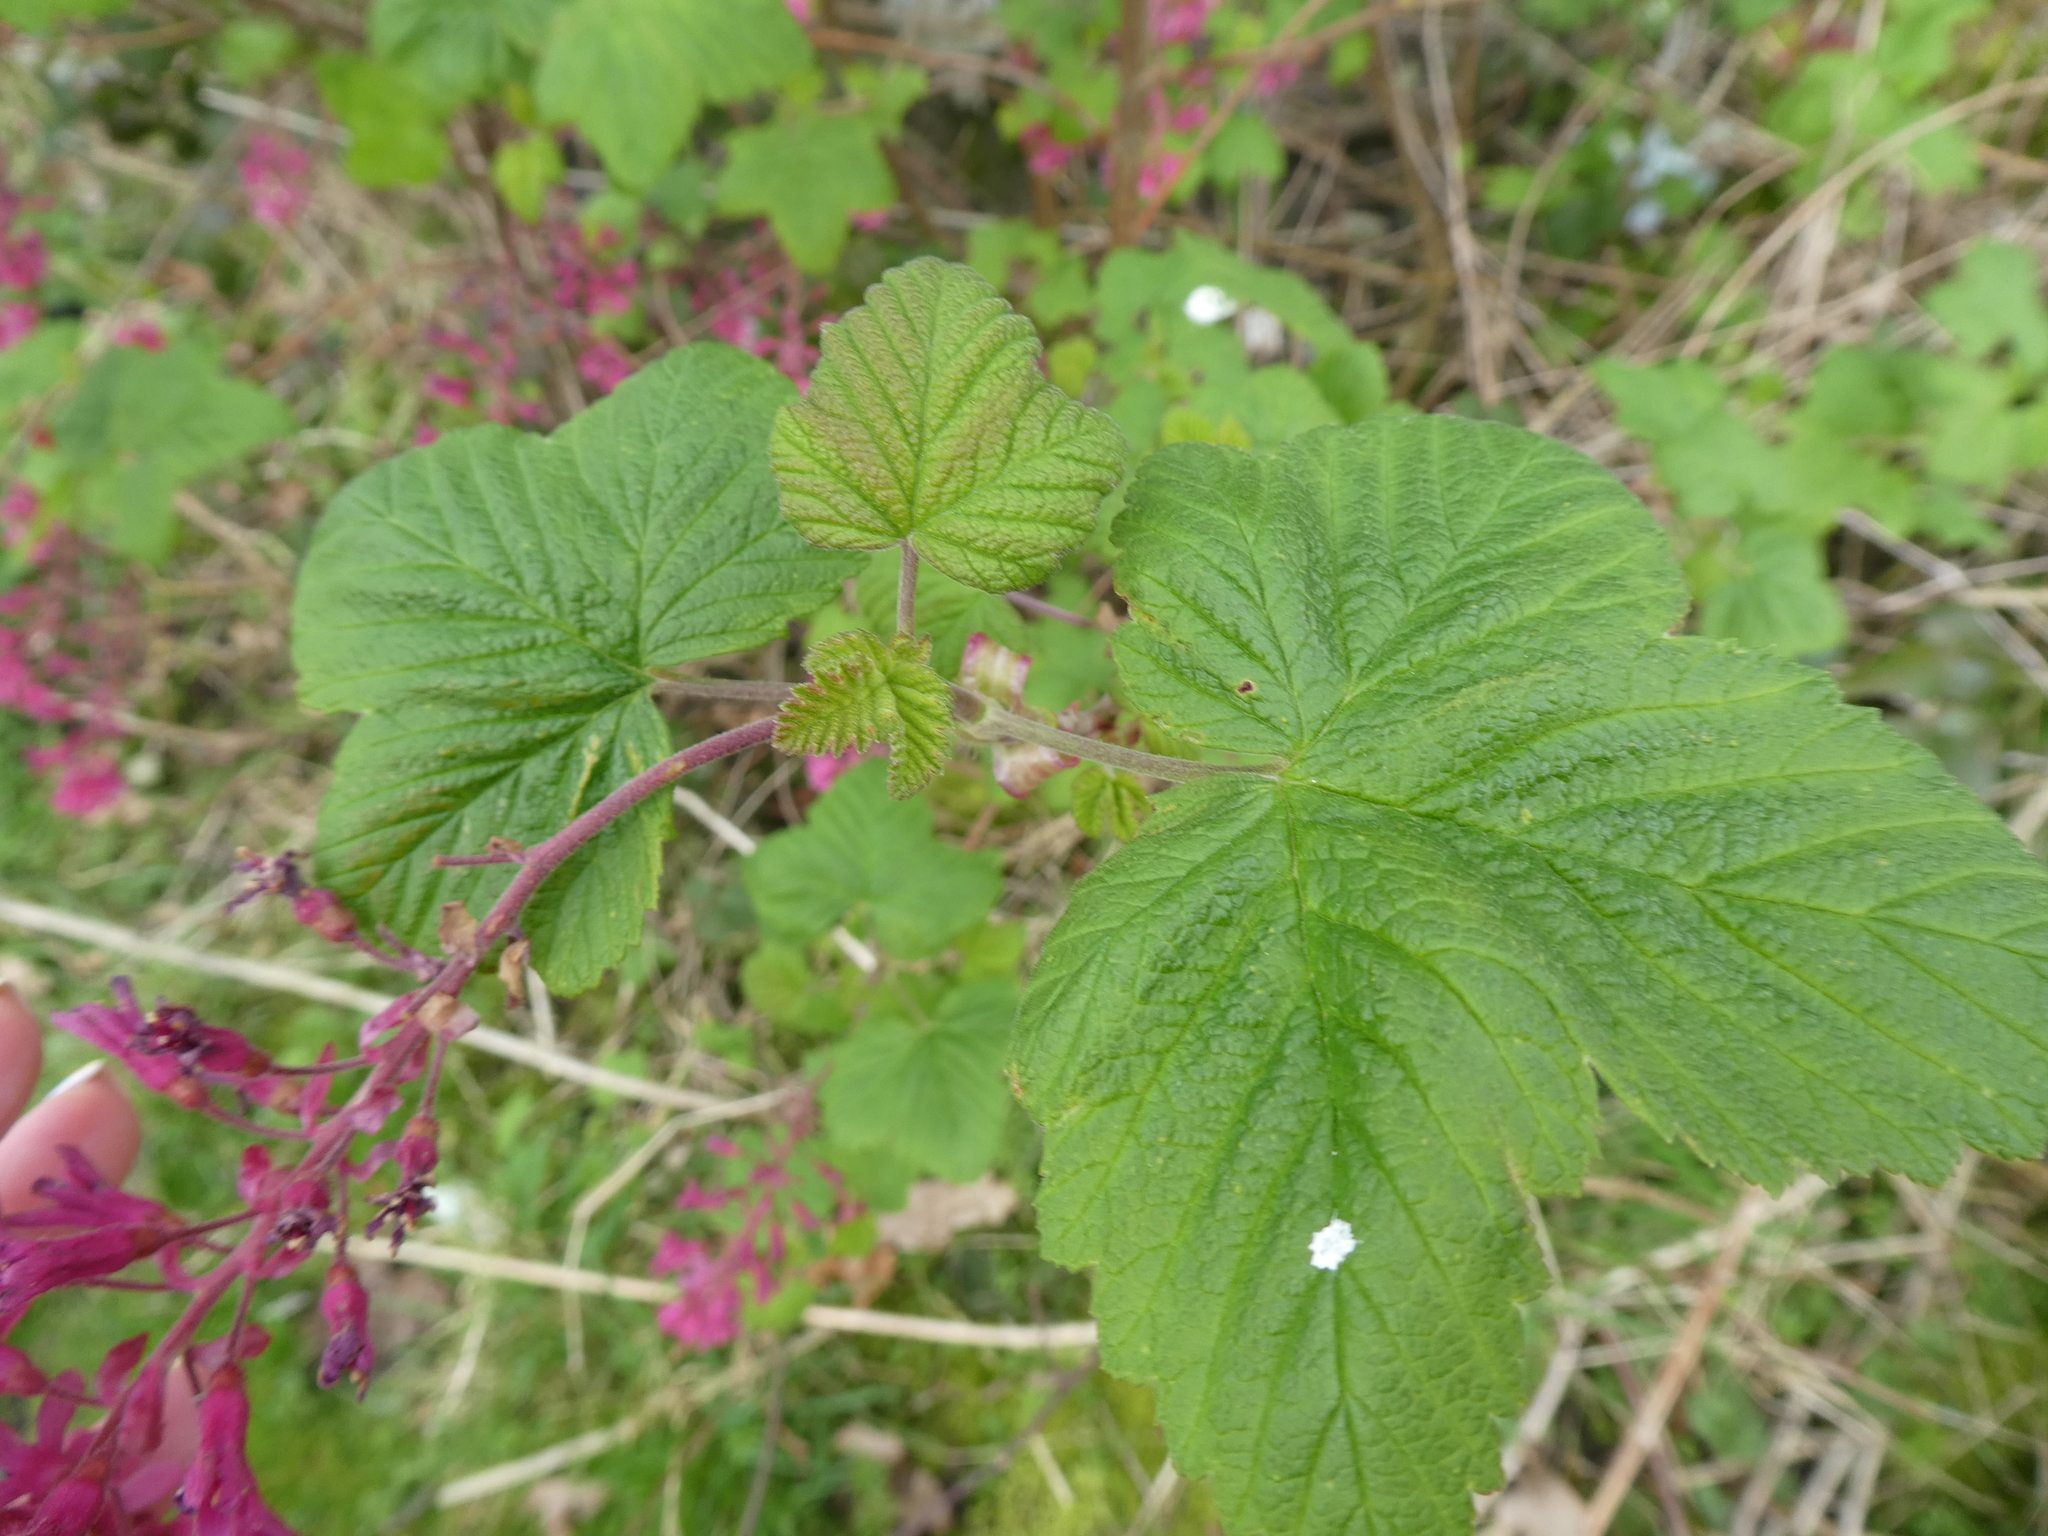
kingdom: Plantae
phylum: Tracheophyta
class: Magnoliopsida
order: Saxifragales
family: Grossulariaceae
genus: Ribes
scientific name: Ribes sanguineum
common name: Flowering currant
